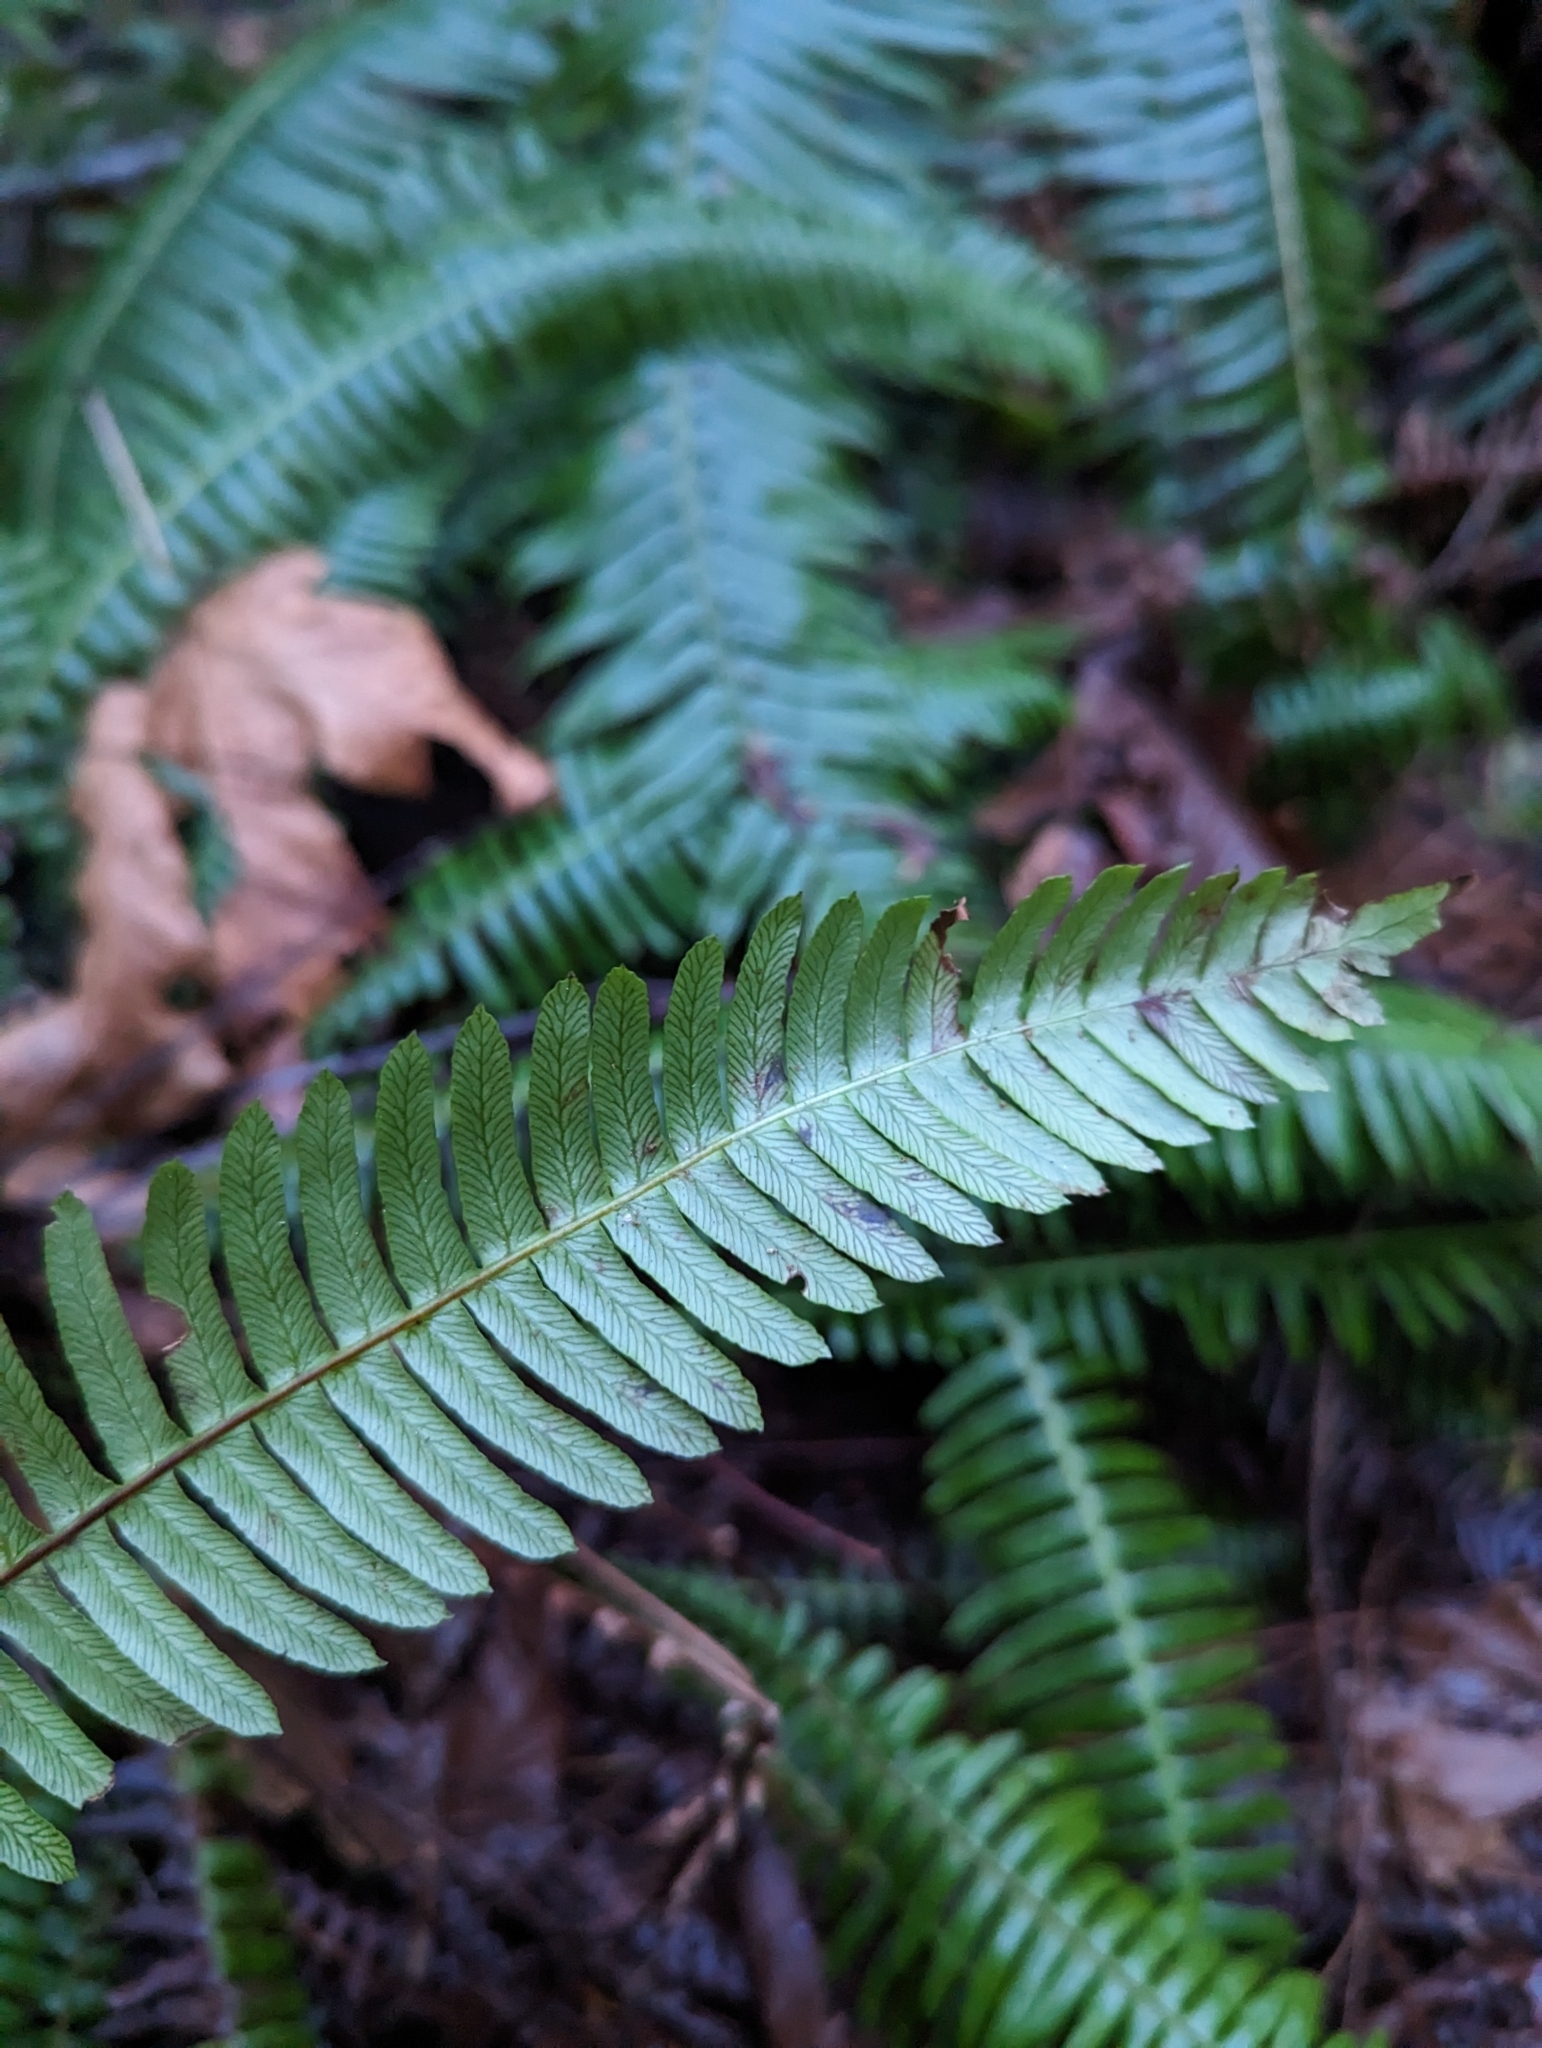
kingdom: Plantae
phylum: Tracheophyta
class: Polypodiopsida
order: Polypodiales
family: Blechnaceae
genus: Struthiopteris
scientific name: Struthiopteris spicant
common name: Deer fern
